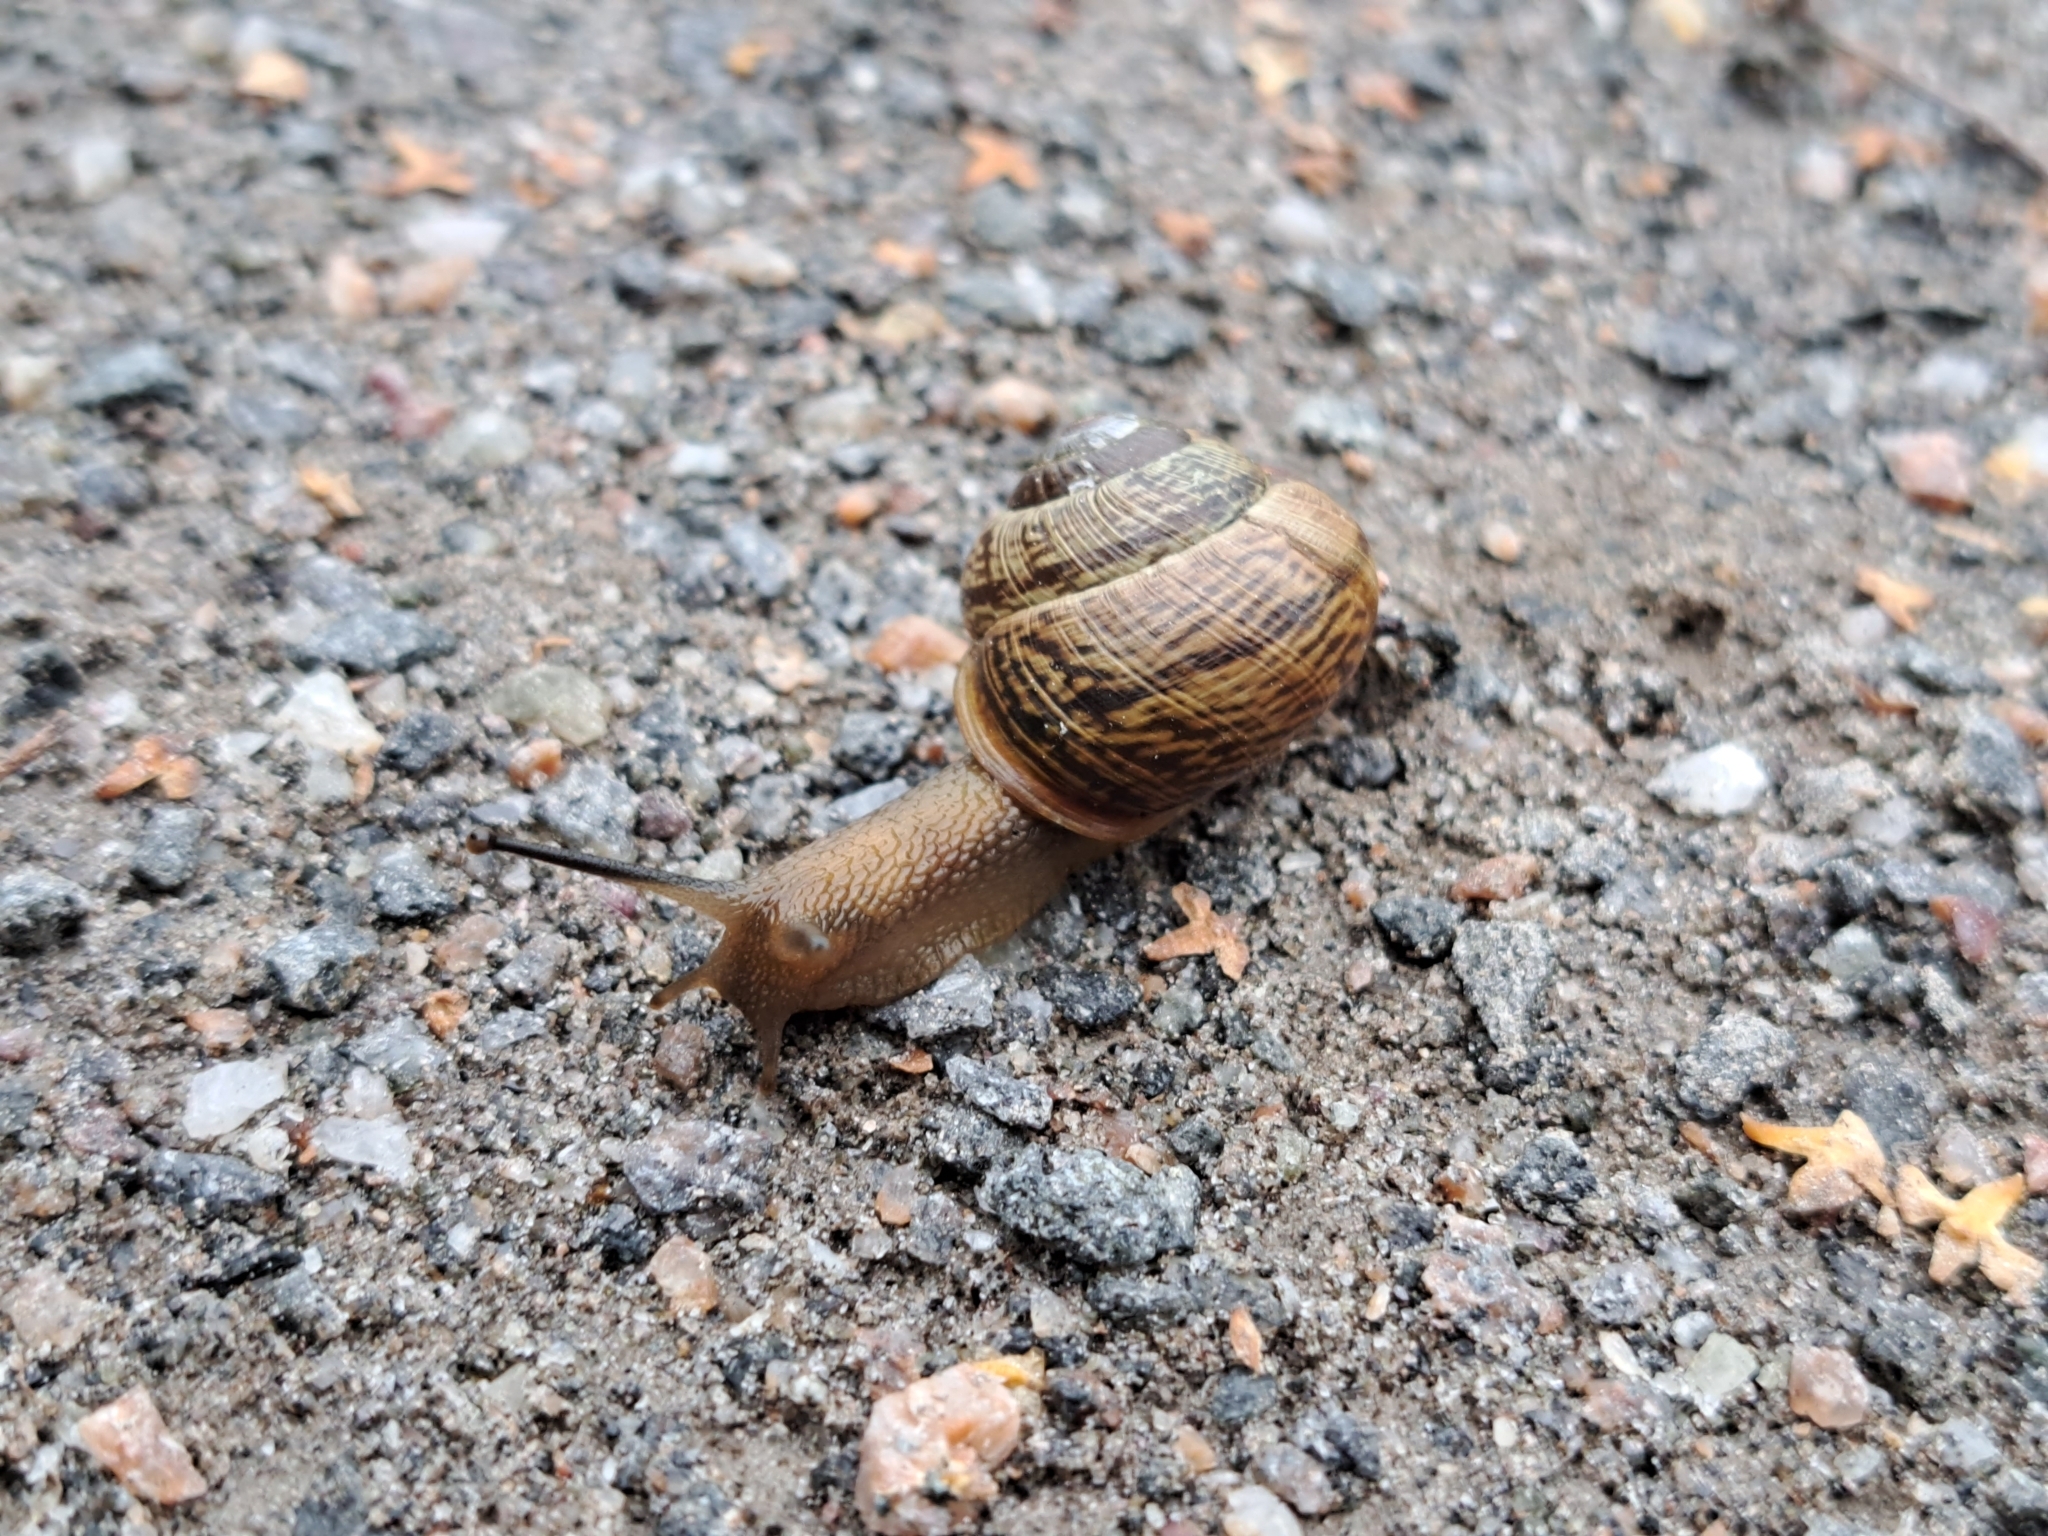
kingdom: Animalia
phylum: Mollusca
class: Gastropoda
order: Stylommatophora
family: Helicidae
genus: Arianta
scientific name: Arianta arbustorum
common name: Copse snail
